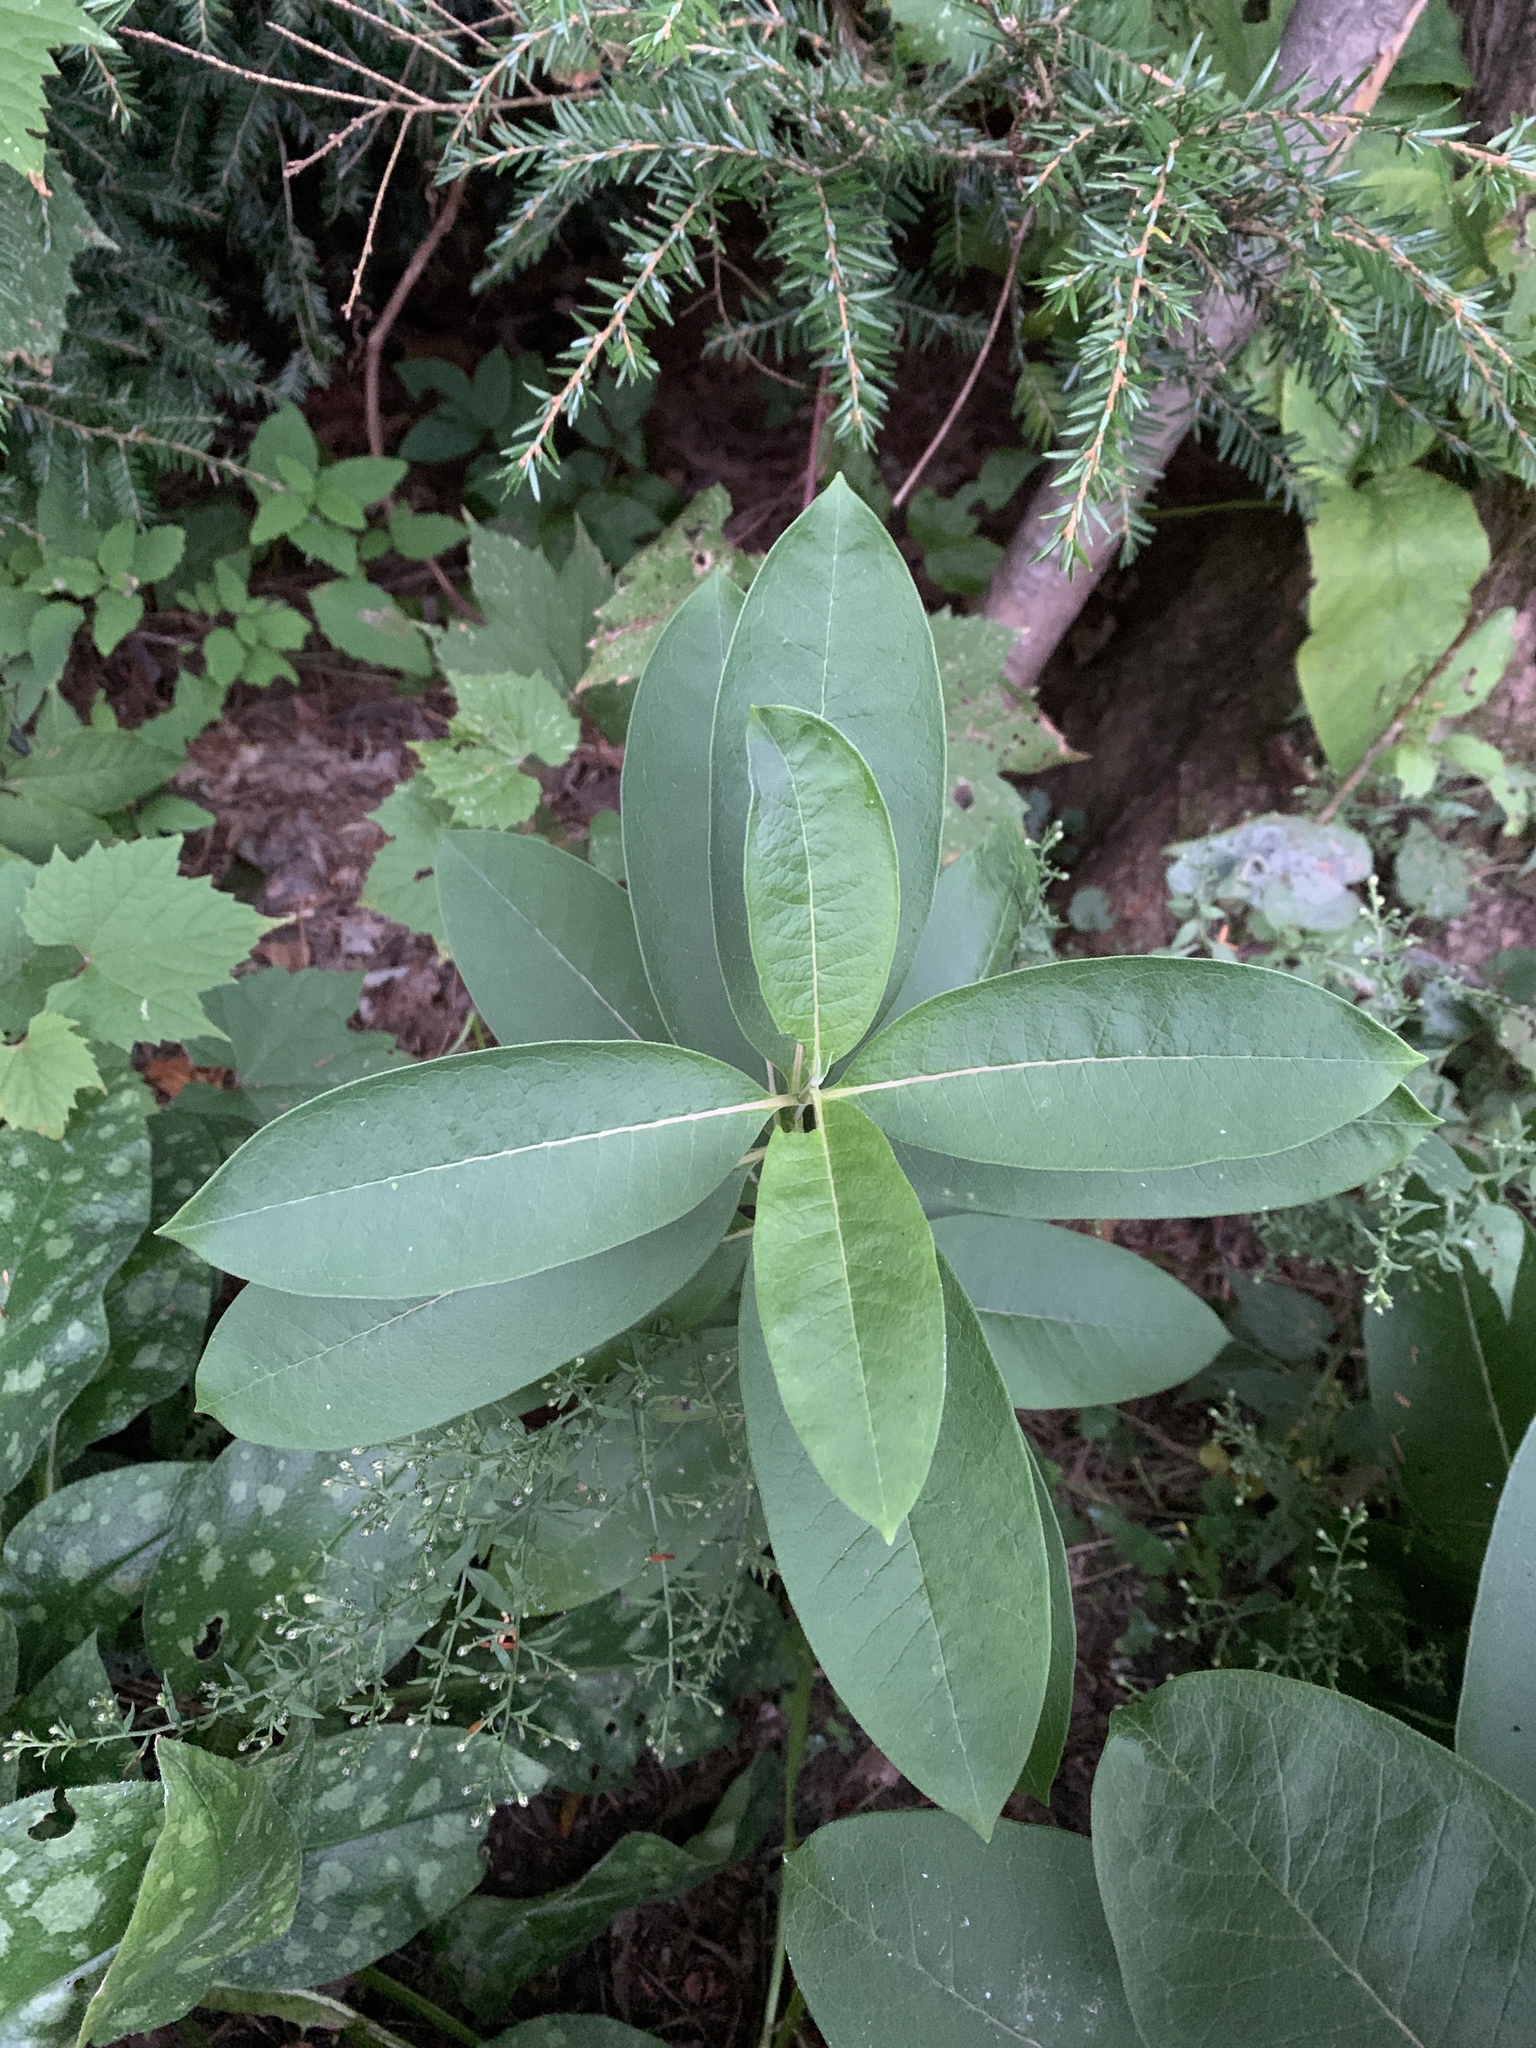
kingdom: Plantae
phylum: Tracheophyta
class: Magnoliopsida
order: Gentianales
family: Apocynaceae
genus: Asclepias
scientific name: Asclepias syriaca
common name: Common milkweed
